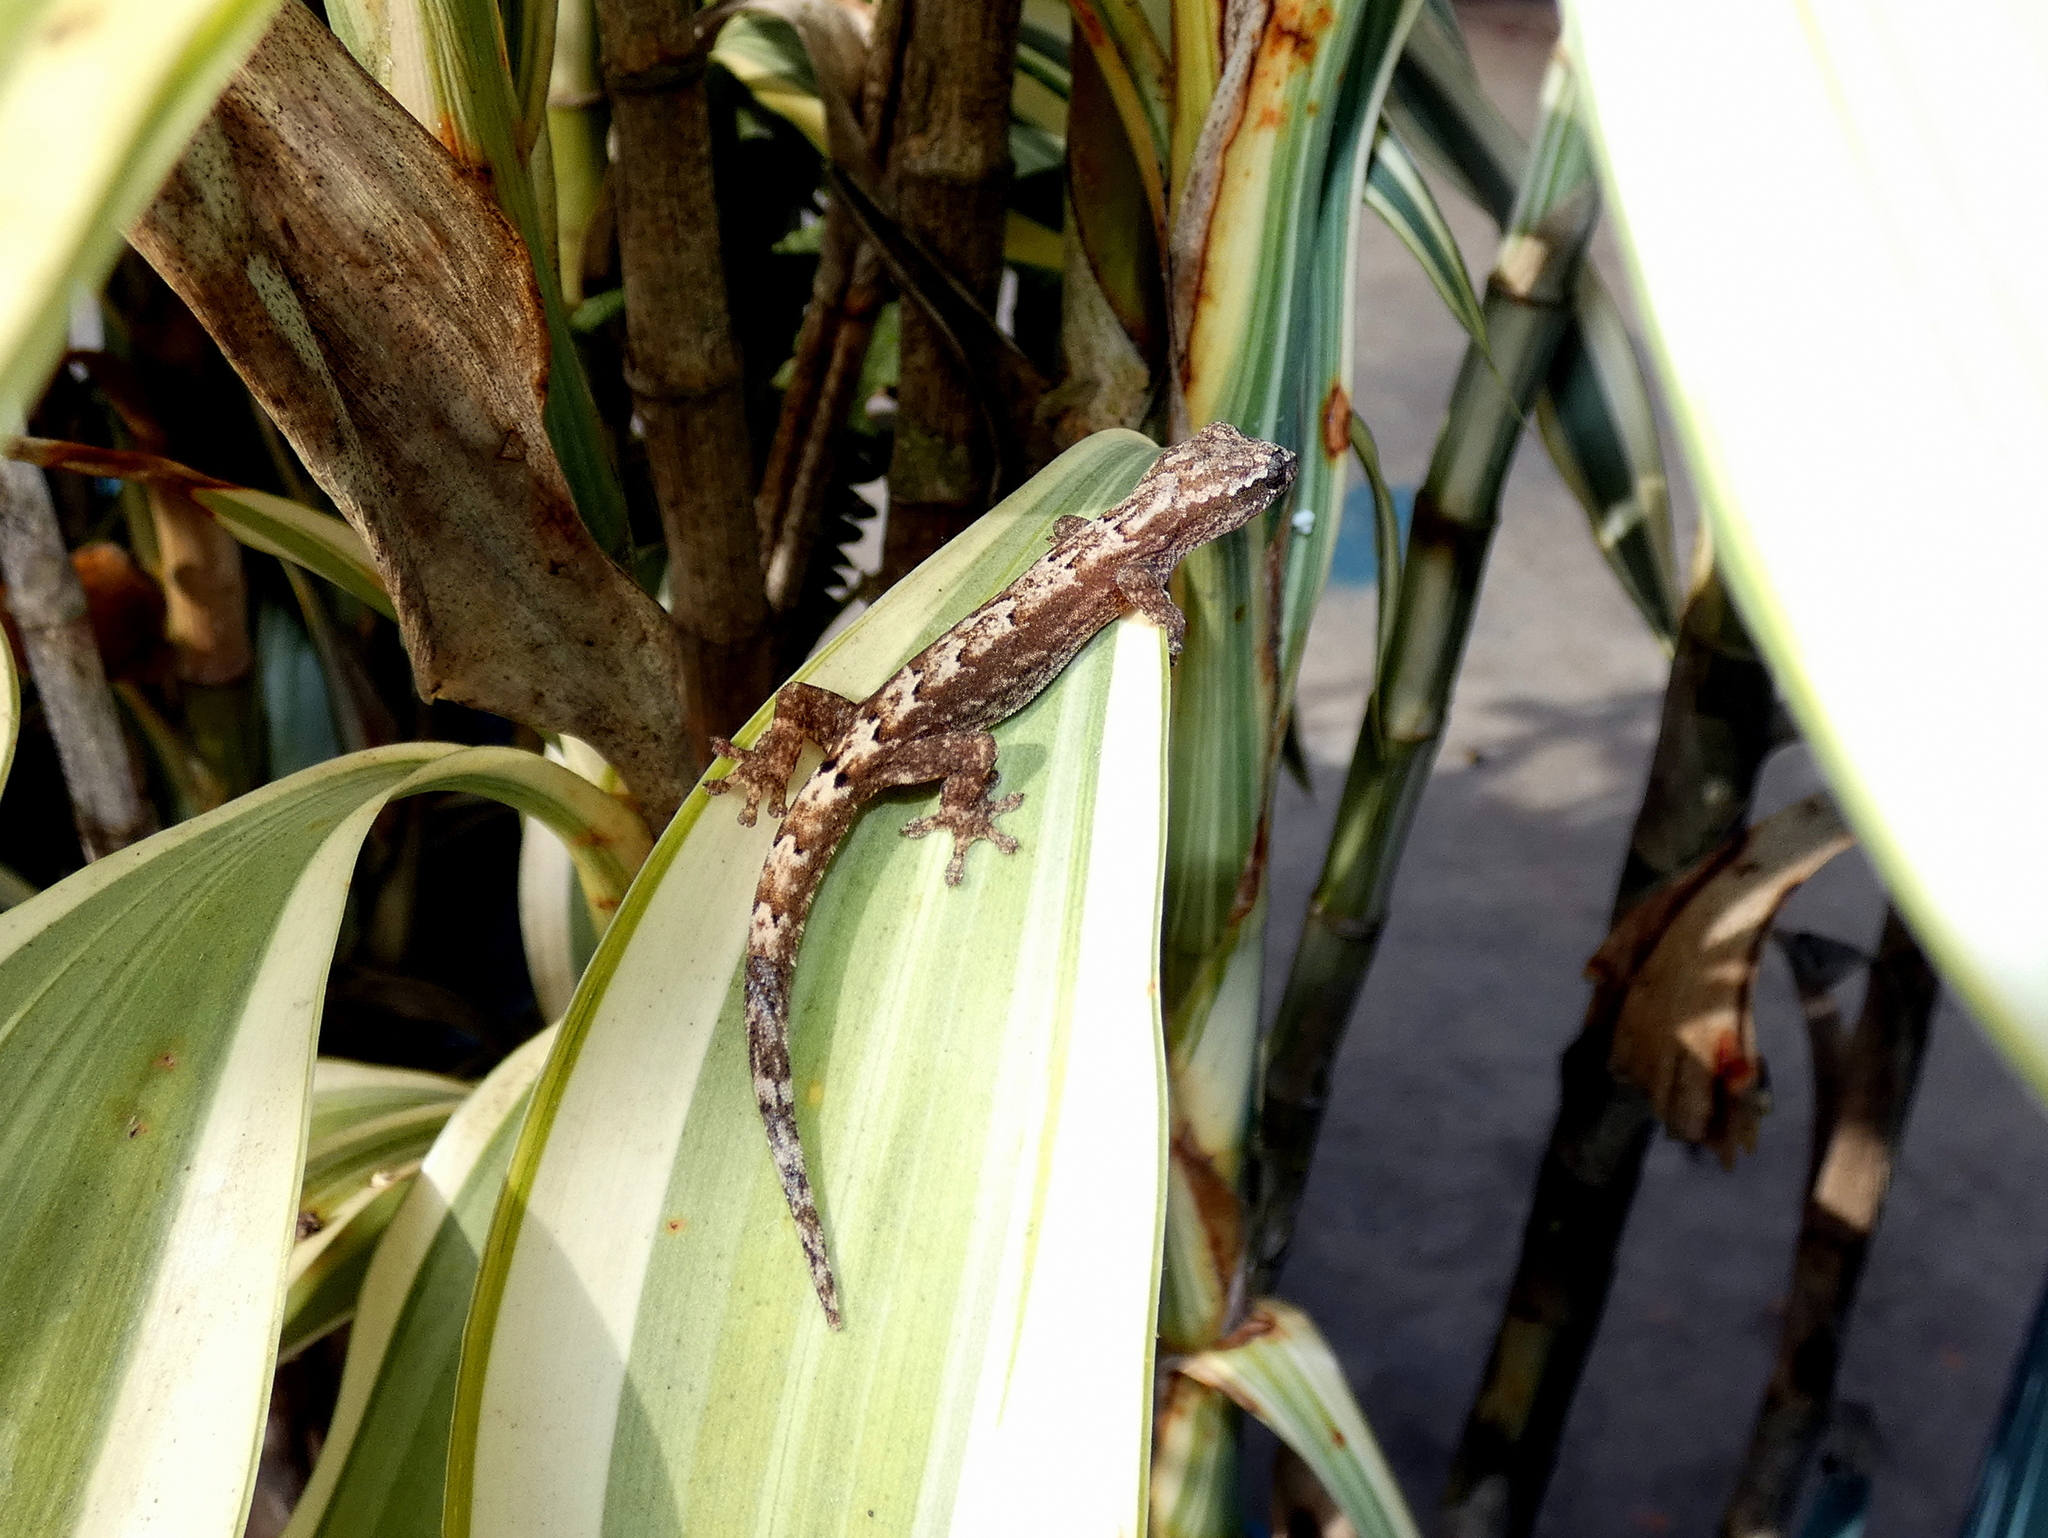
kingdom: Animalia
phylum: Chordata
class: Squamata
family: Gekkonidae
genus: Lepidodactylus
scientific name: Lepidodactylus lugubris
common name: Mourning gecko
